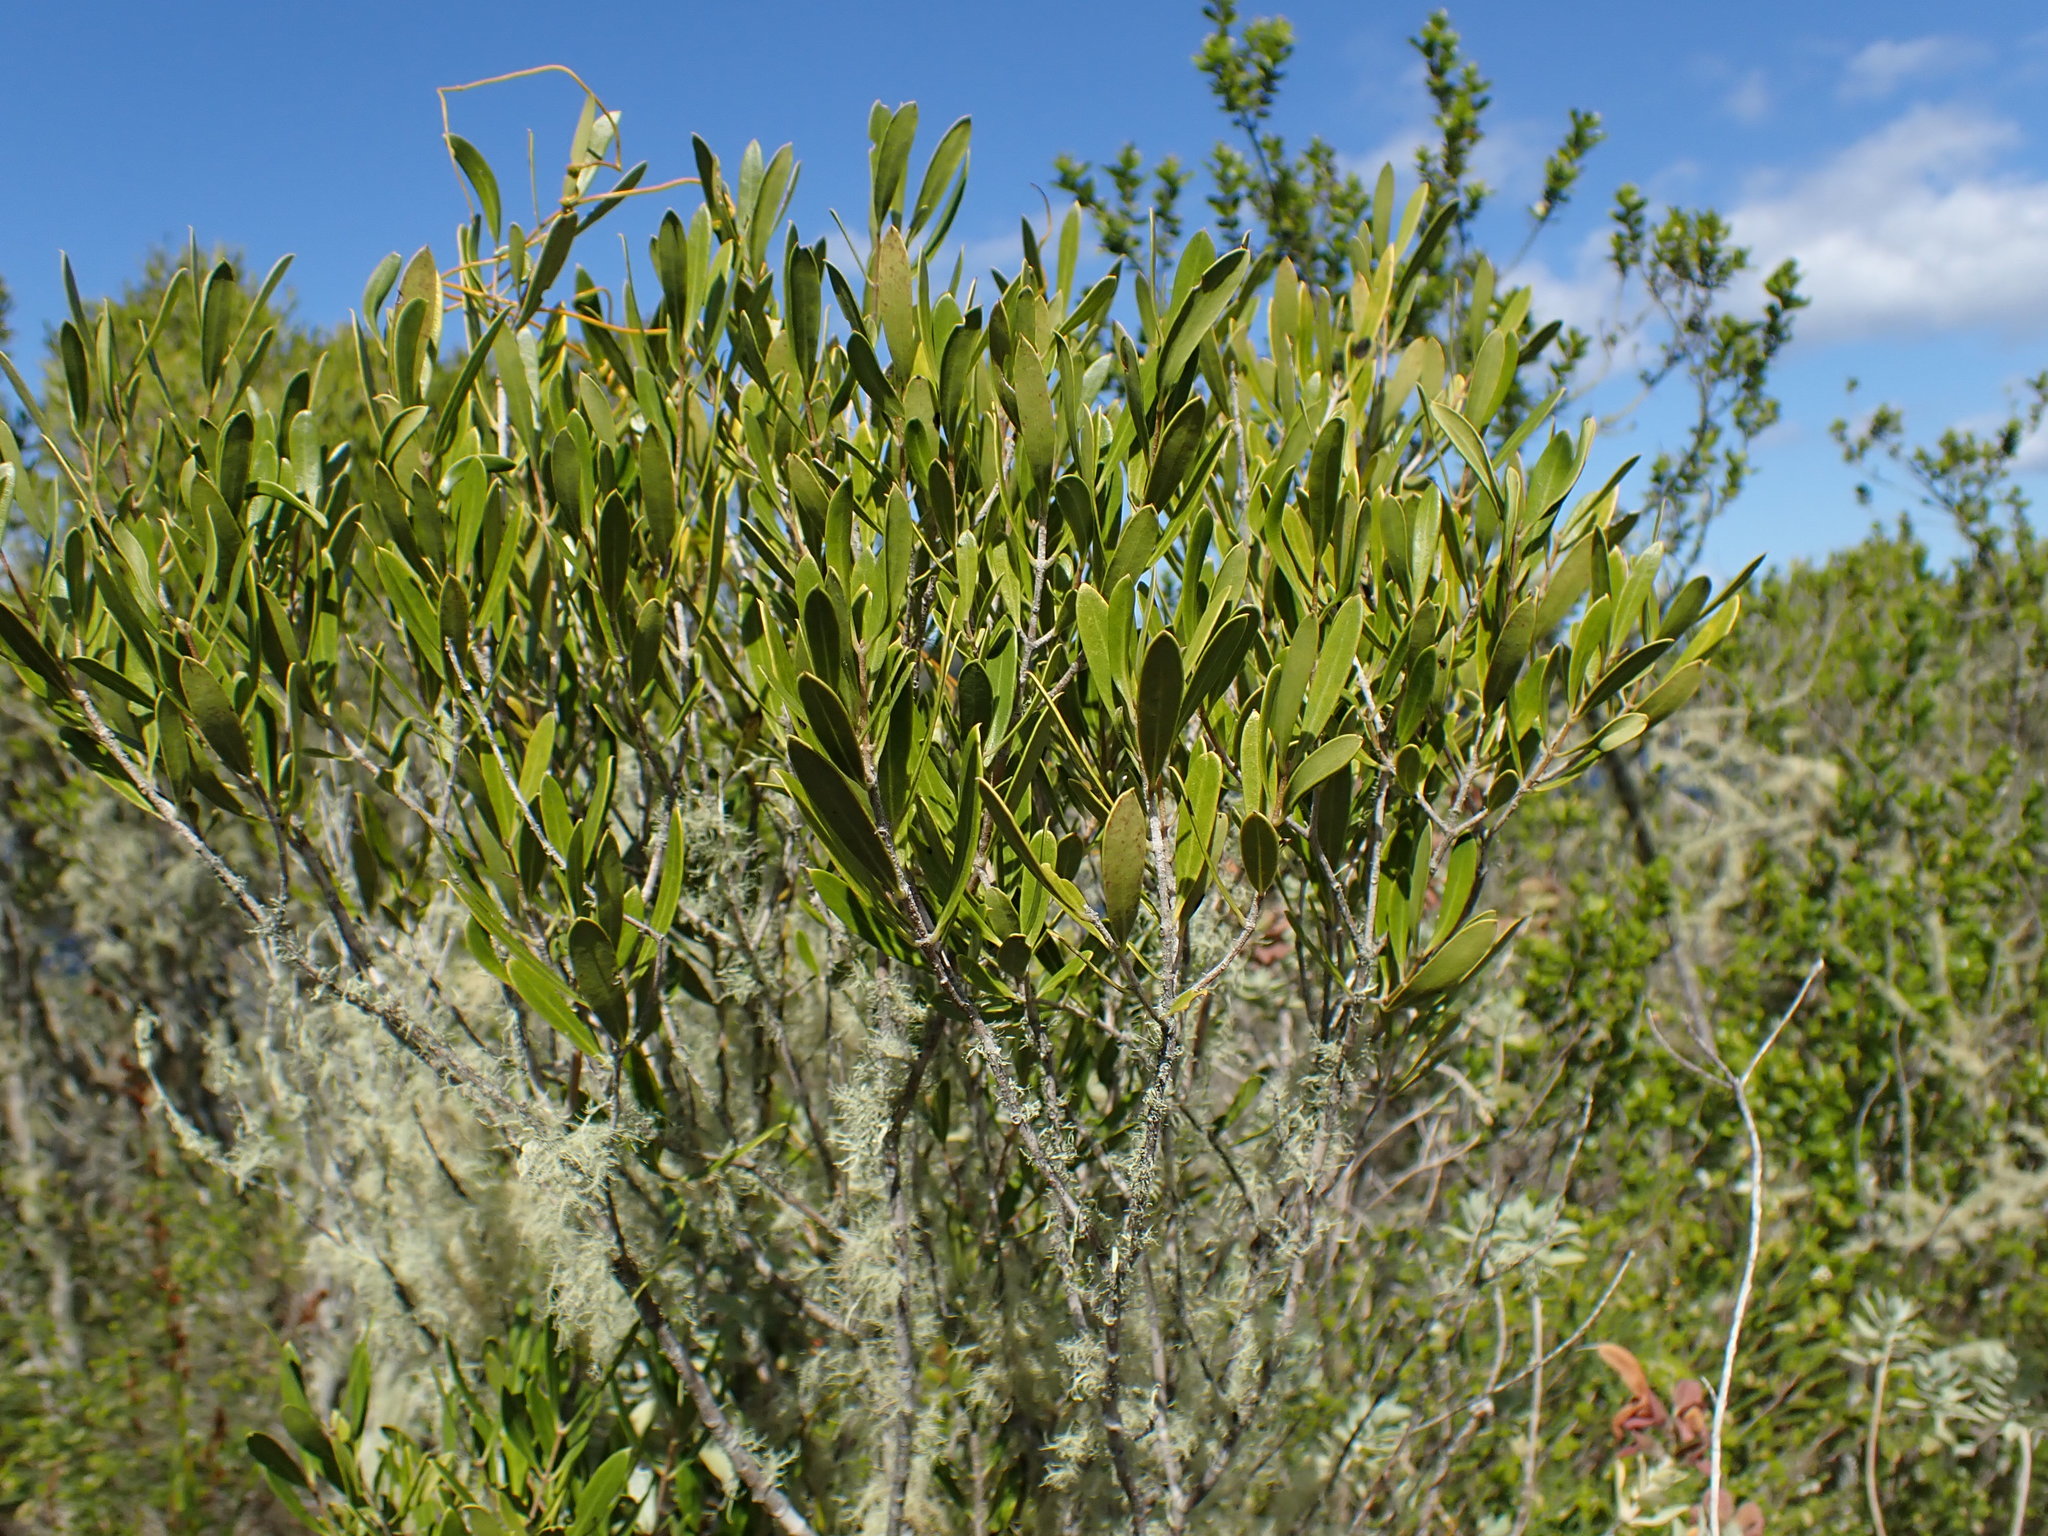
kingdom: Plantae
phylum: Tracheophyta
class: Magnoliopsida
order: Lamiales
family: Oleaceae
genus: Olea
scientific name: Olea exasperata
